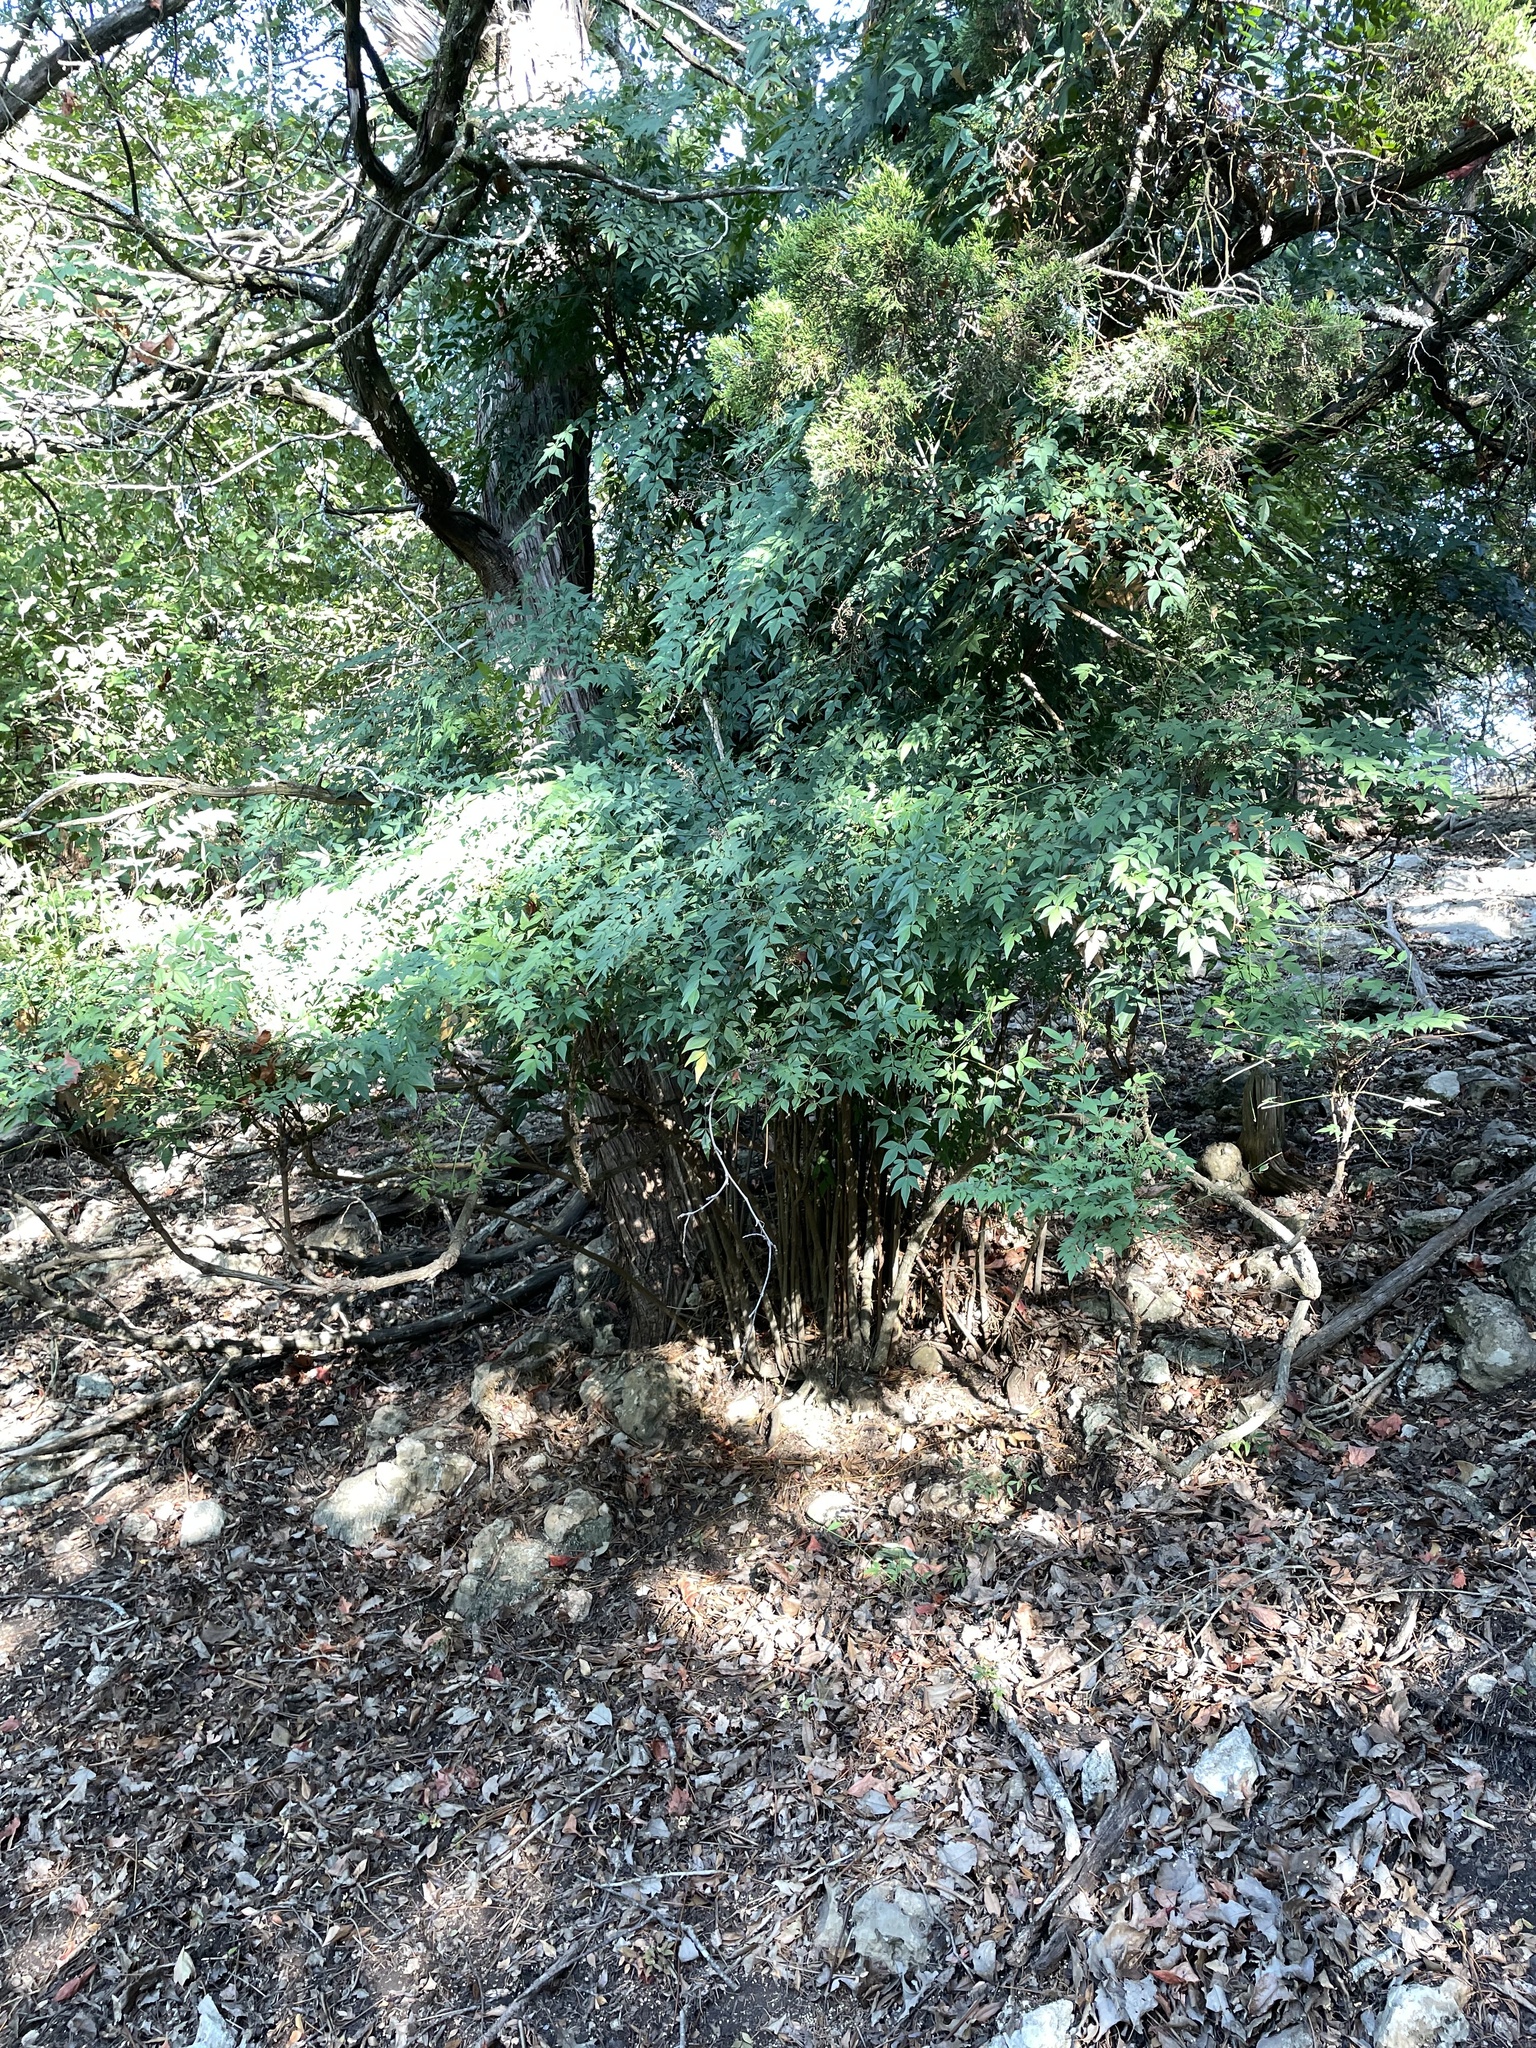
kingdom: Plantae
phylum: Tracheophyta
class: Magnoliopsida
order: Ranunculales
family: Berberidaceae
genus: Nandina
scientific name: Nandina domestica
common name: Sacred bamboo
